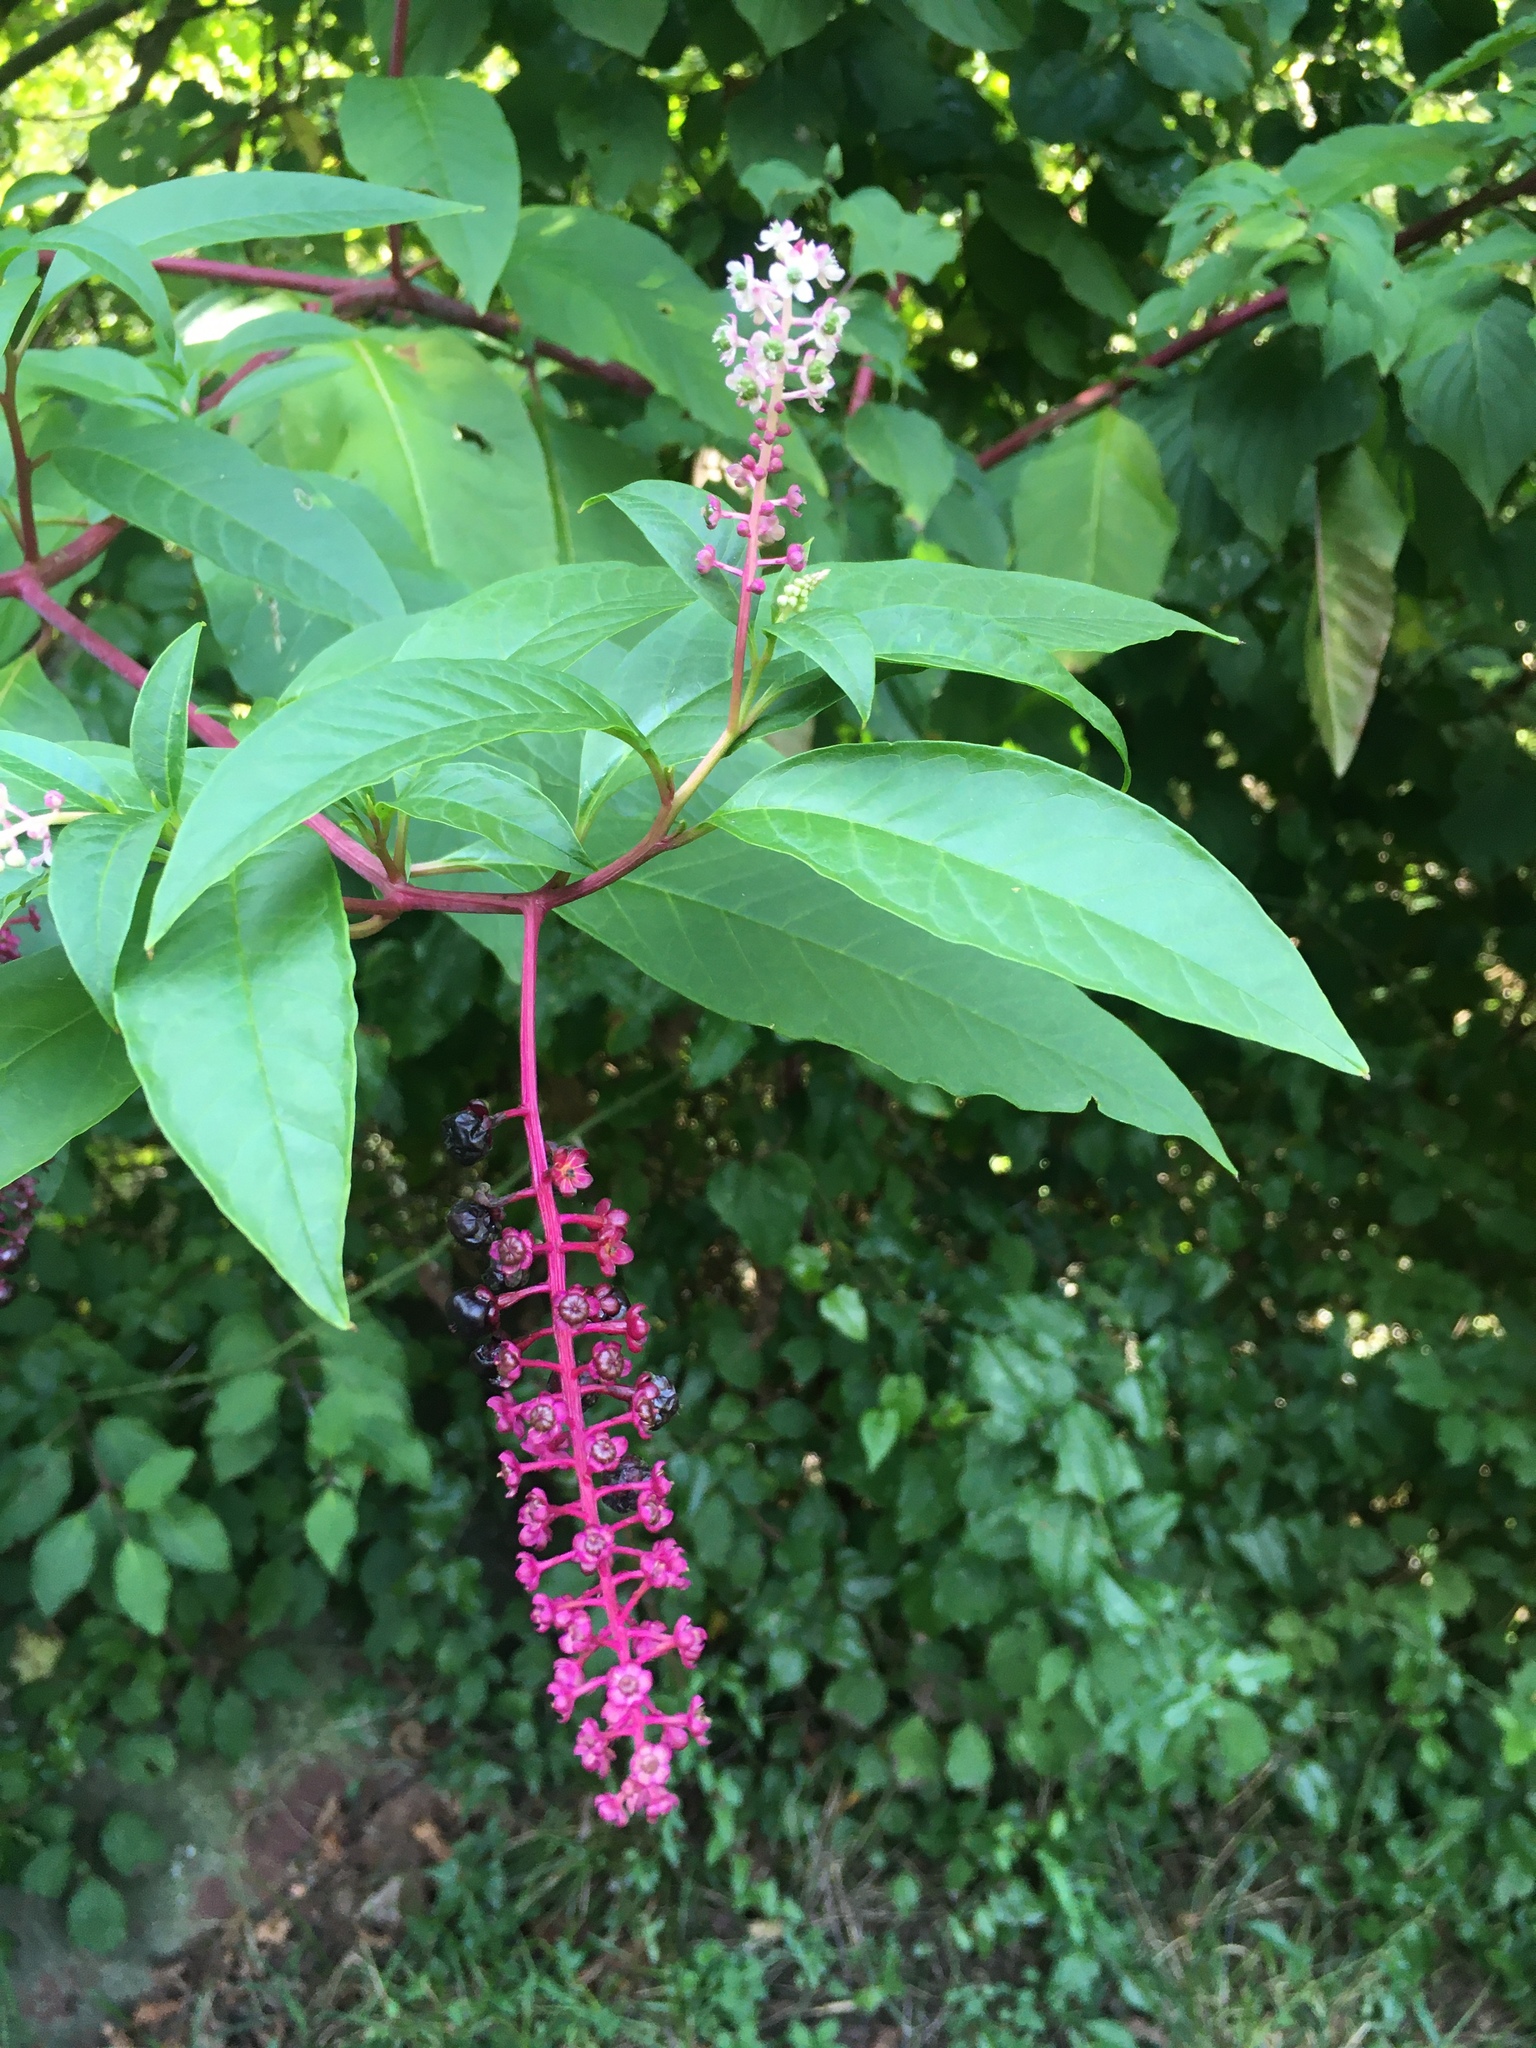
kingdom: Plantae
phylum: Tracheophyta
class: Magnoliopsida
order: Caryophyllales
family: Phytolaccaceae
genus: Phytolacca
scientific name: Phytolacca americana
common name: American pokeweed
